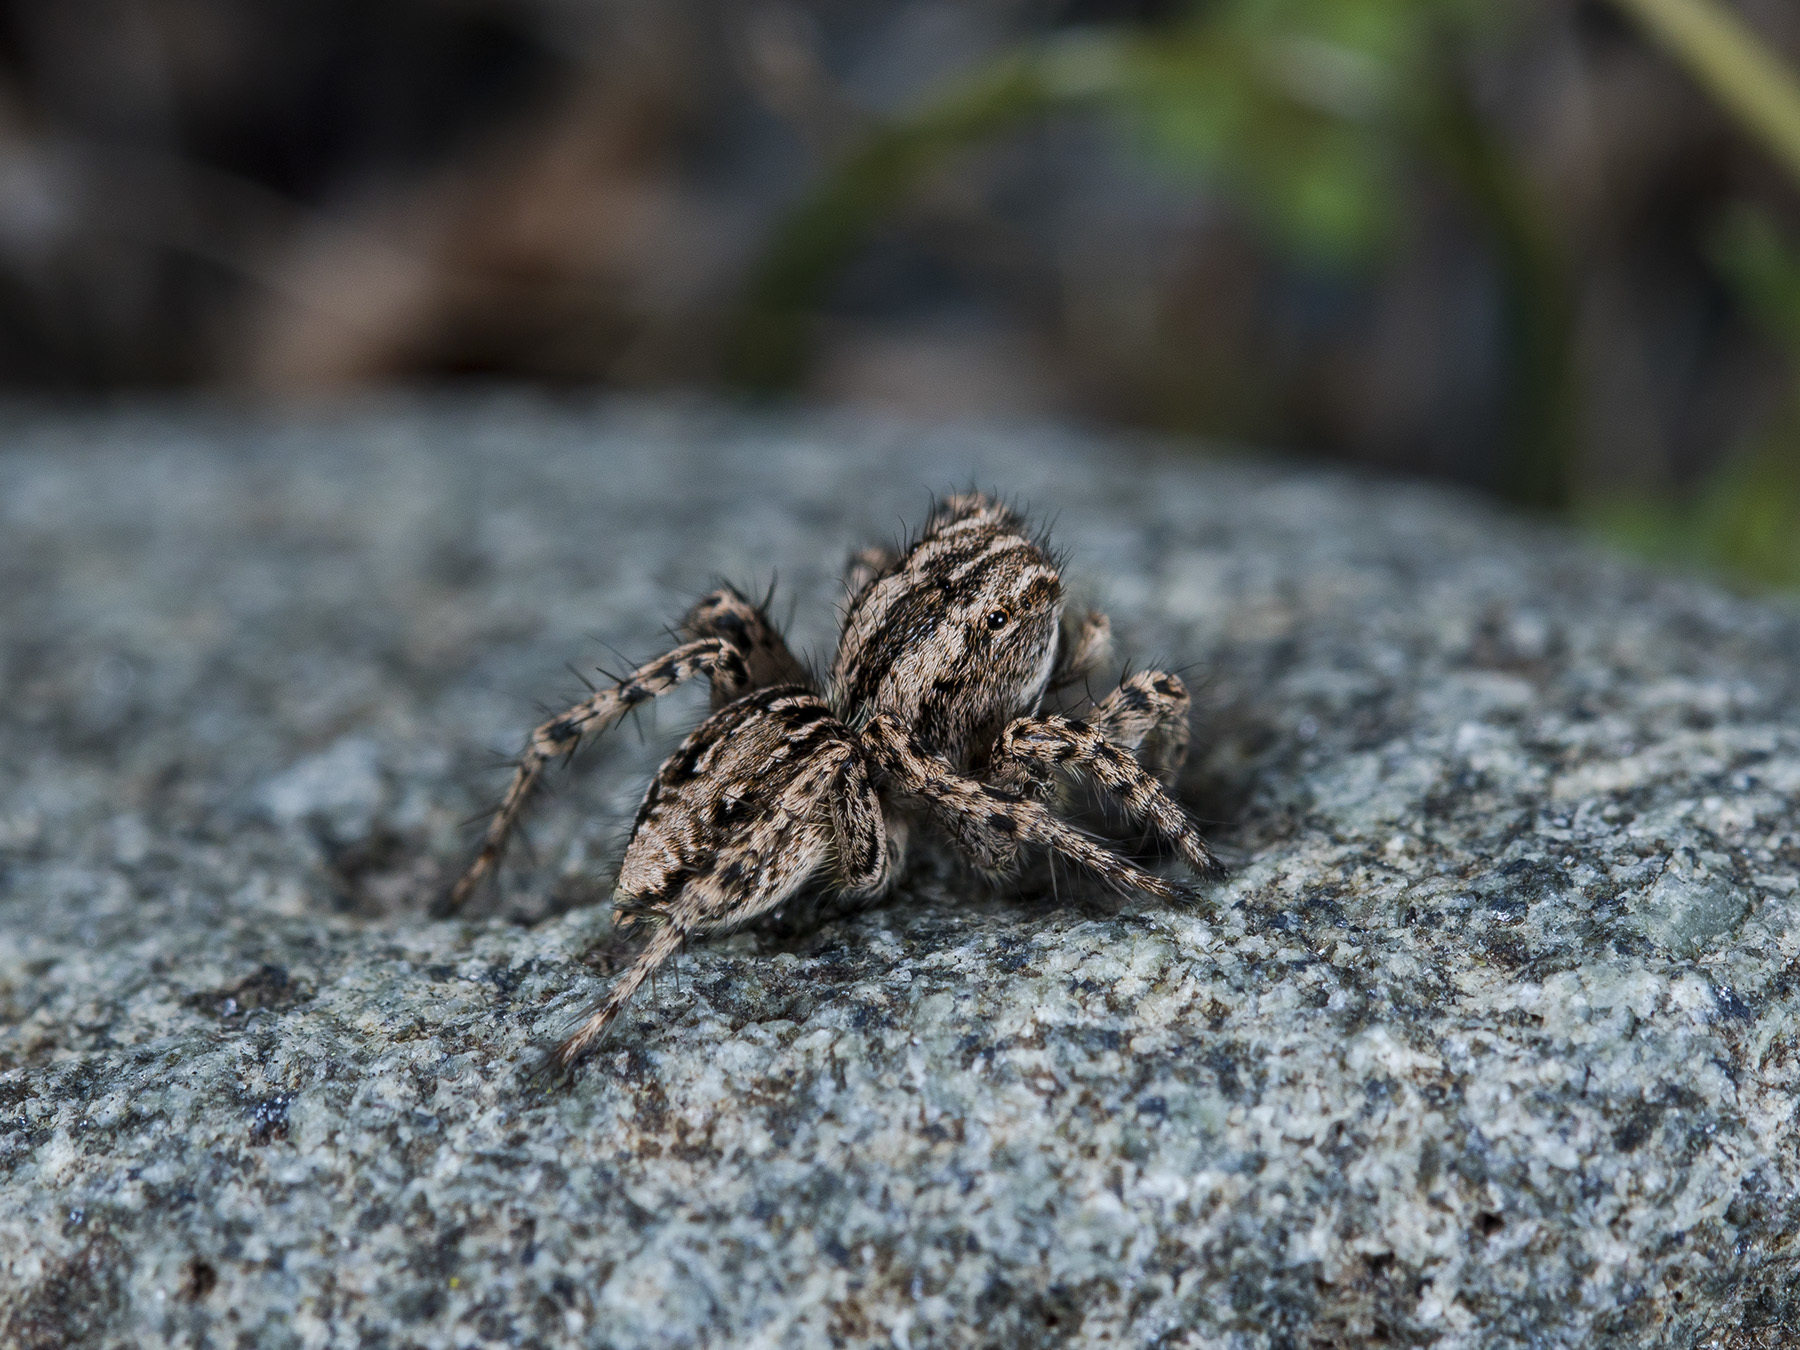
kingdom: Animalia
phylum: Arthropoda
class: Arachnida
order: Araneae
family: Salticidae
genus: Aelurillus
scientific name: Aelurillus m-nigrum
